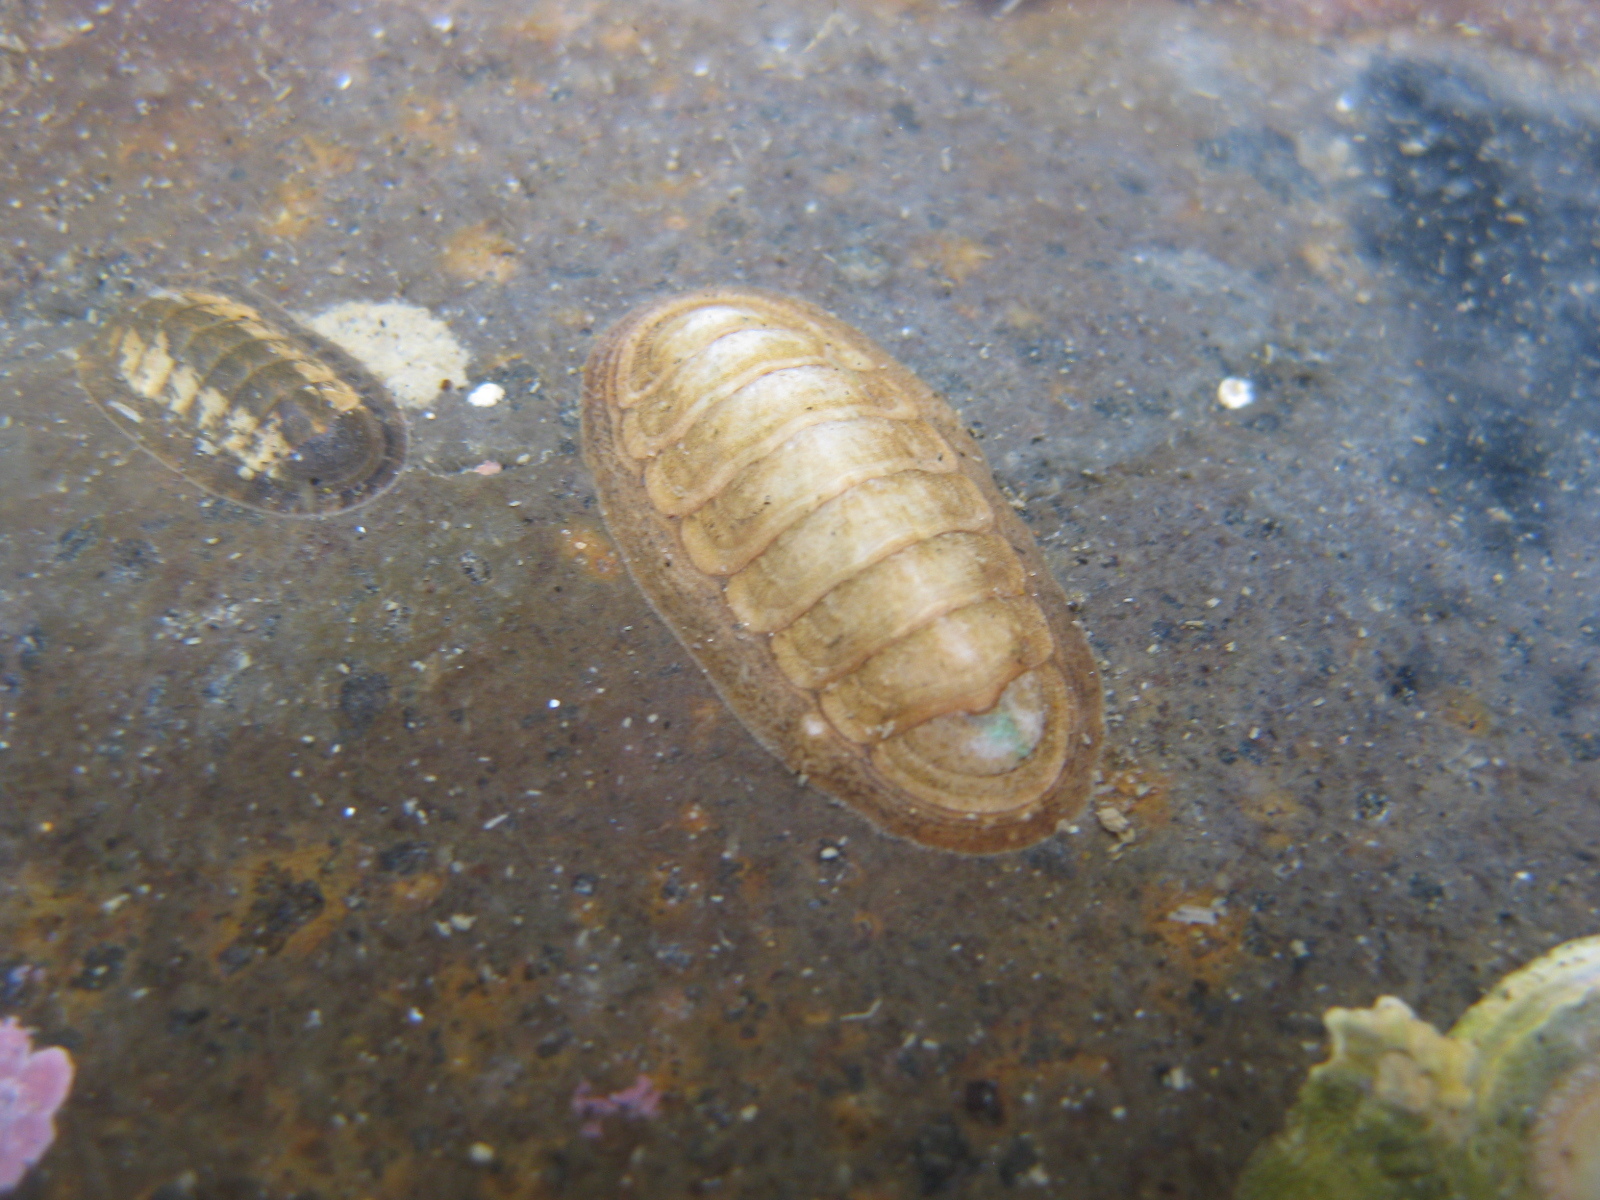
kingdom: Animalia
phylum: Mollusca
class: Polyplacophora
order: Chitonida
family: Ischnochitonidae
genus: Ischnochiton
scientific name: Ischnochiton maorianus
